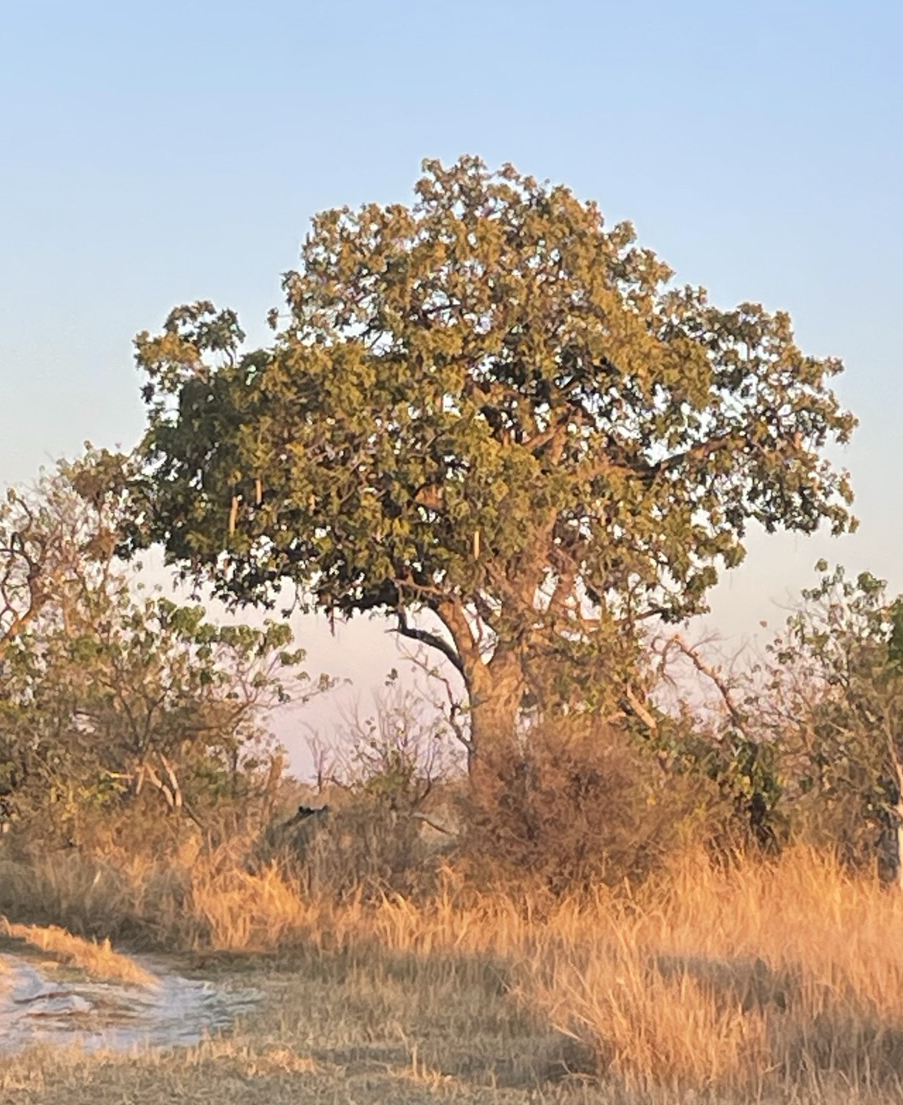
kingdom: Plantae
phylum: Tracheophyta
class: Magnoliopsida
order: Lamiales
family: Bignoniaceae
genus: Kigelia
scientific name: Kigelia africana
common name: Sausage tree
